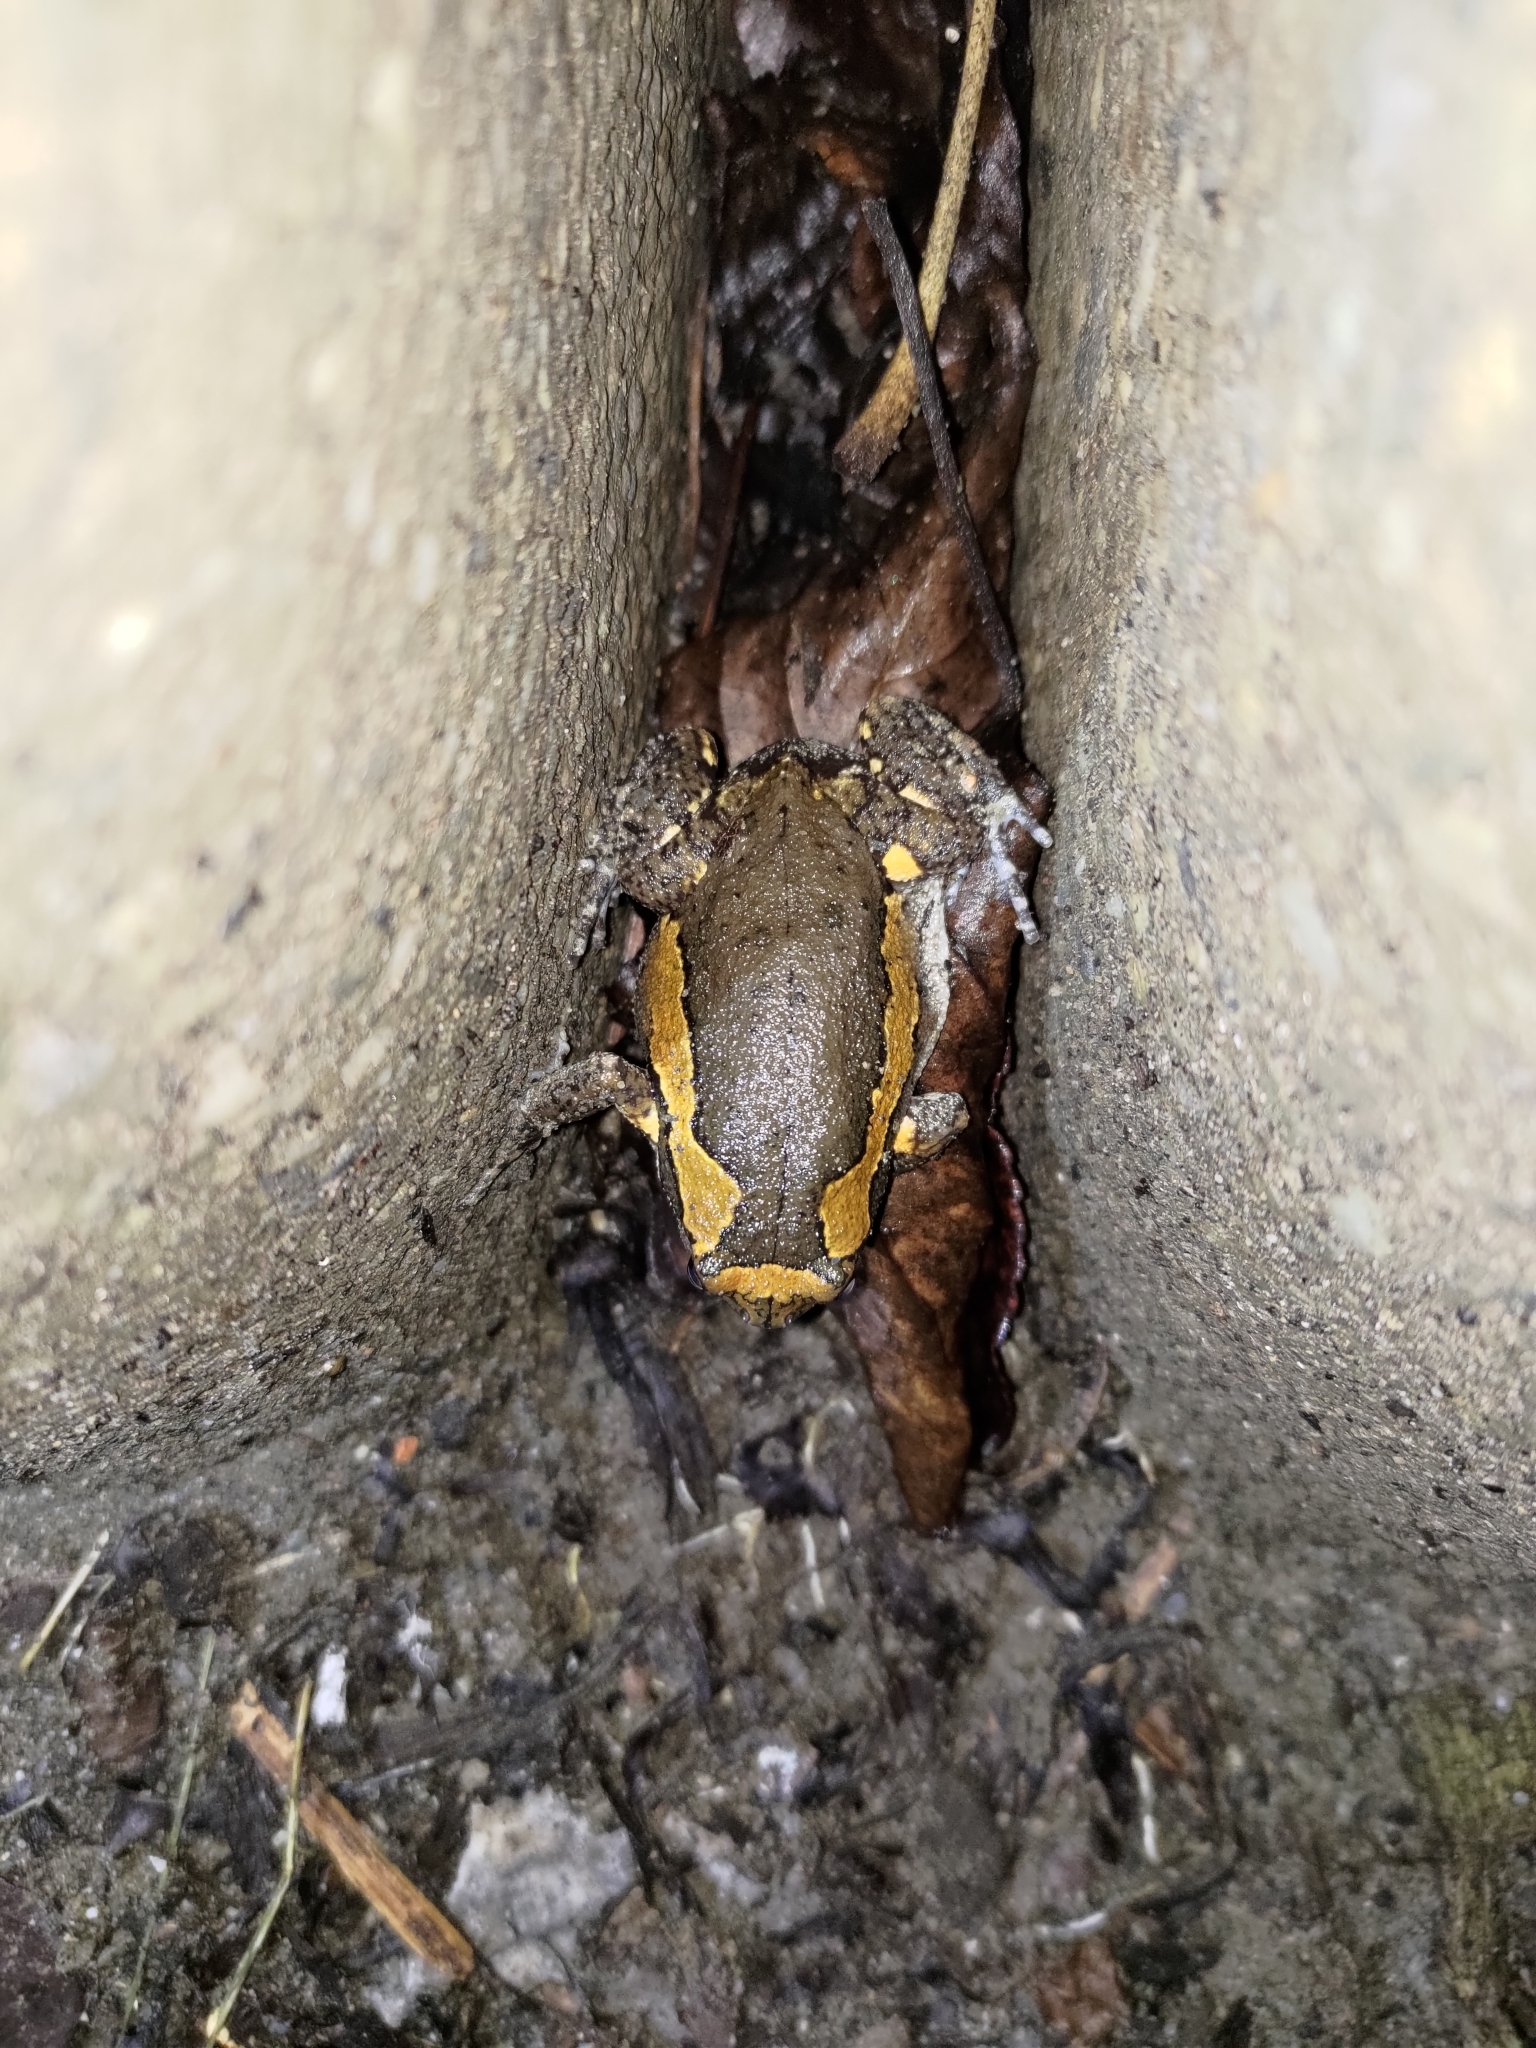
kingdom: Animalia
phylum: Chordata
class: Amphibia
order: Anura
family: Microhylidae
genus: Kaloula
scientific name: Kaloula pulchra
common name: Common,banded bullfrog
